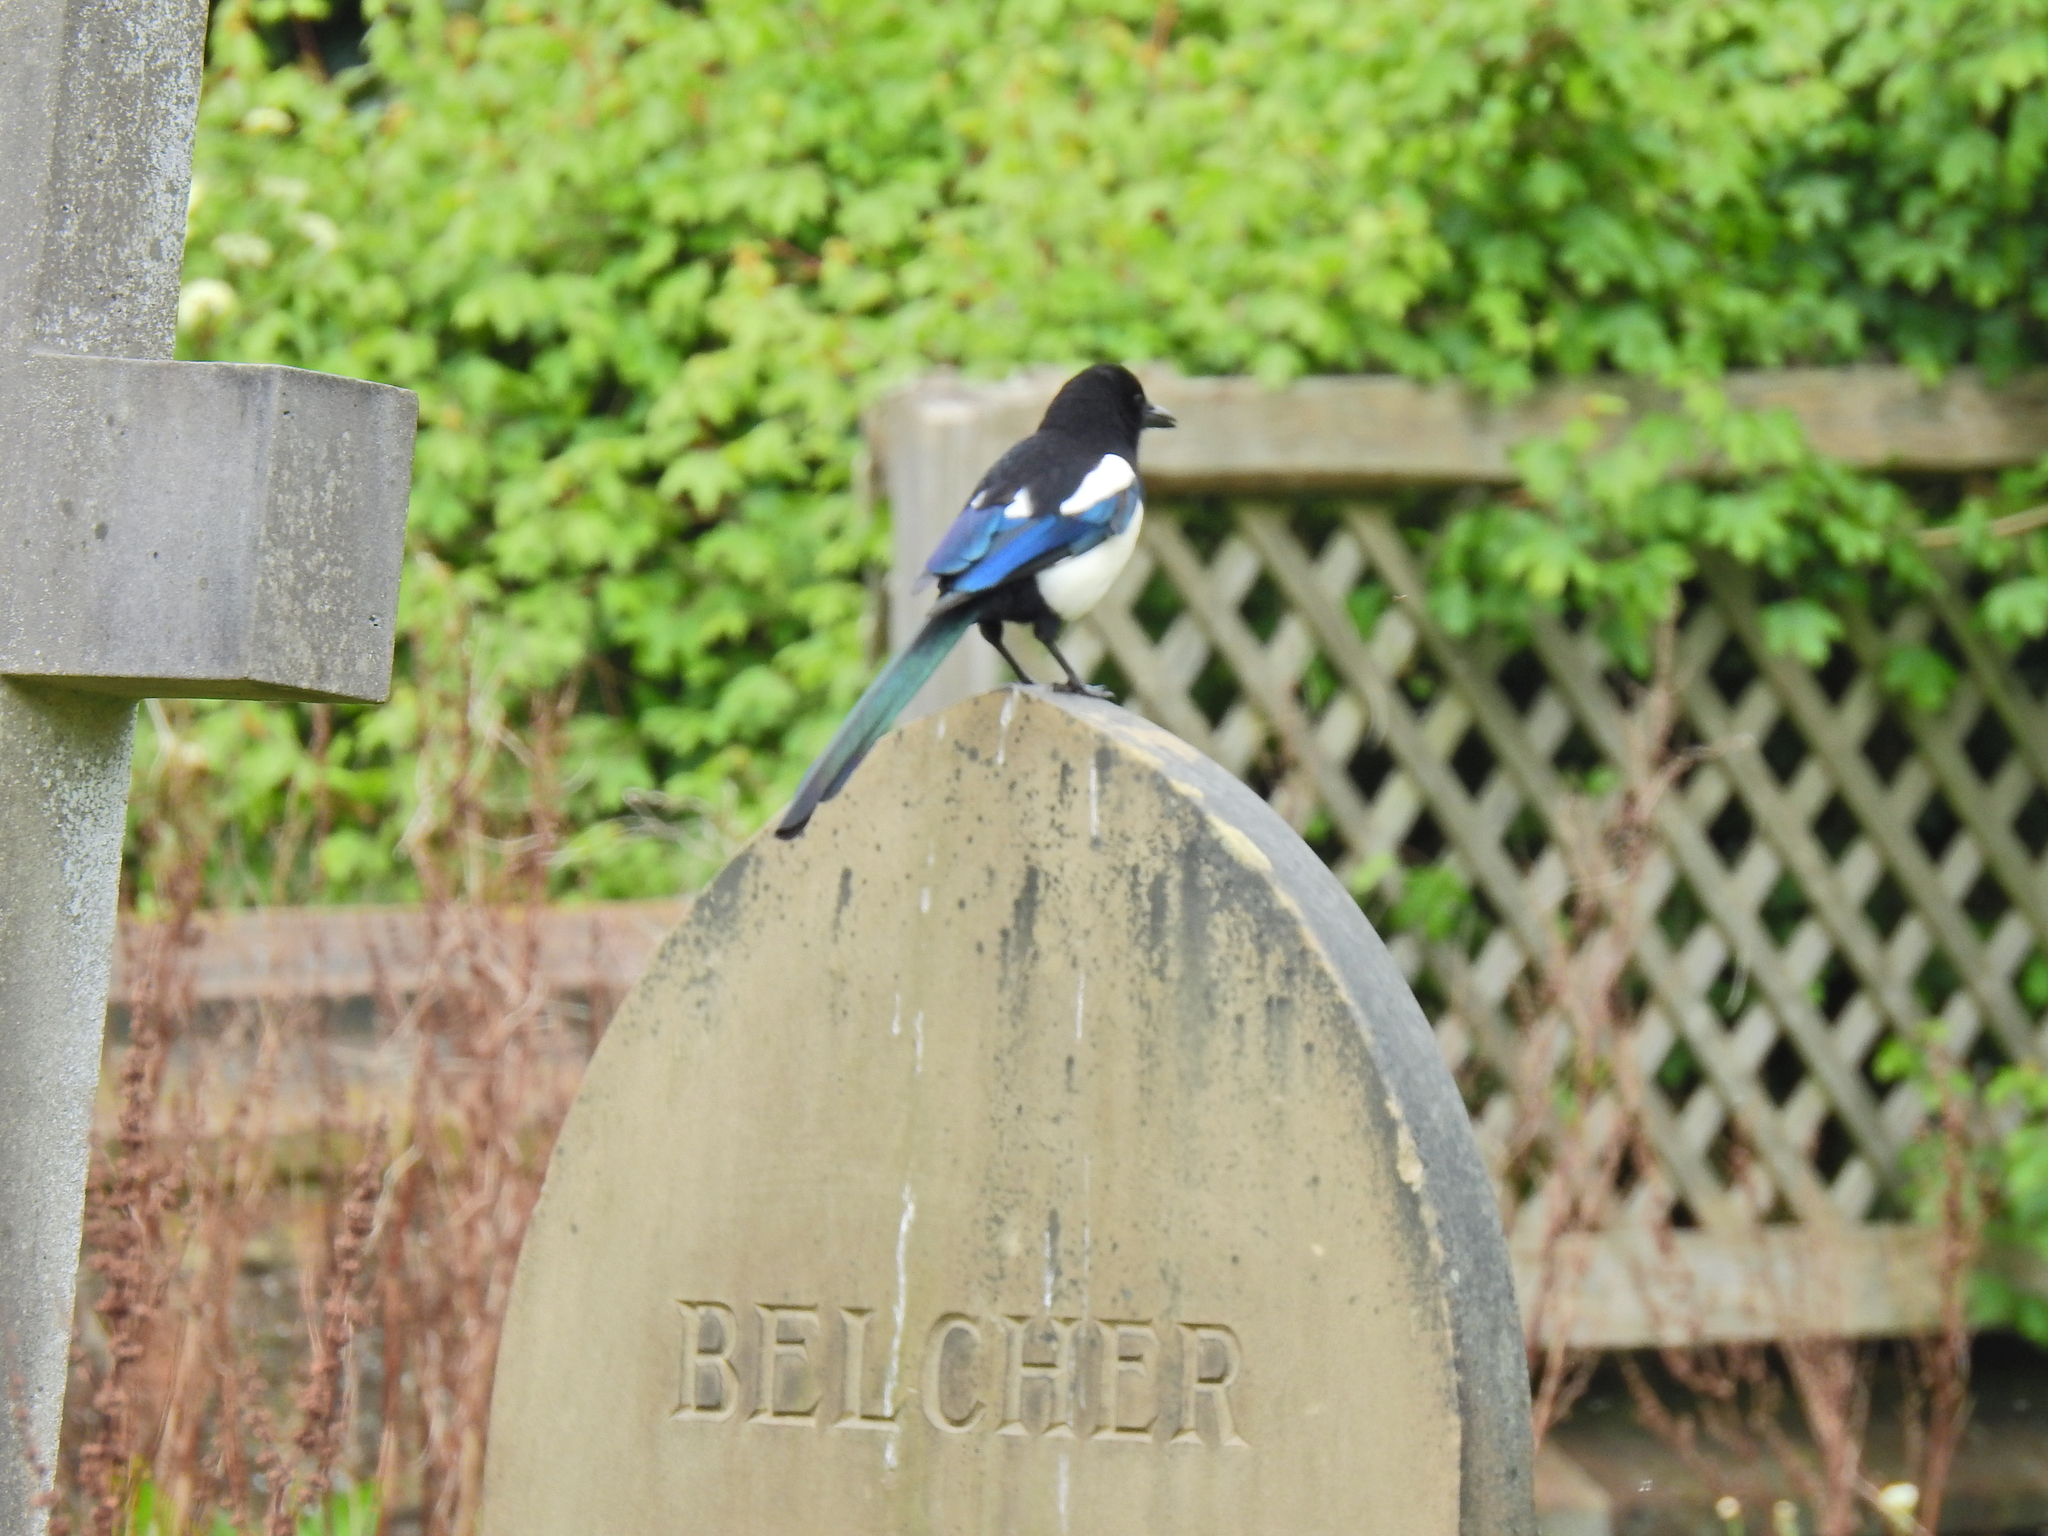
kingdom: Animalia
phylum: Chordata
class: Aves
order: Passeriformes
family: Corvidae
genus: Pica
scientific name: Pica pica
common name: Eurasian magpie
